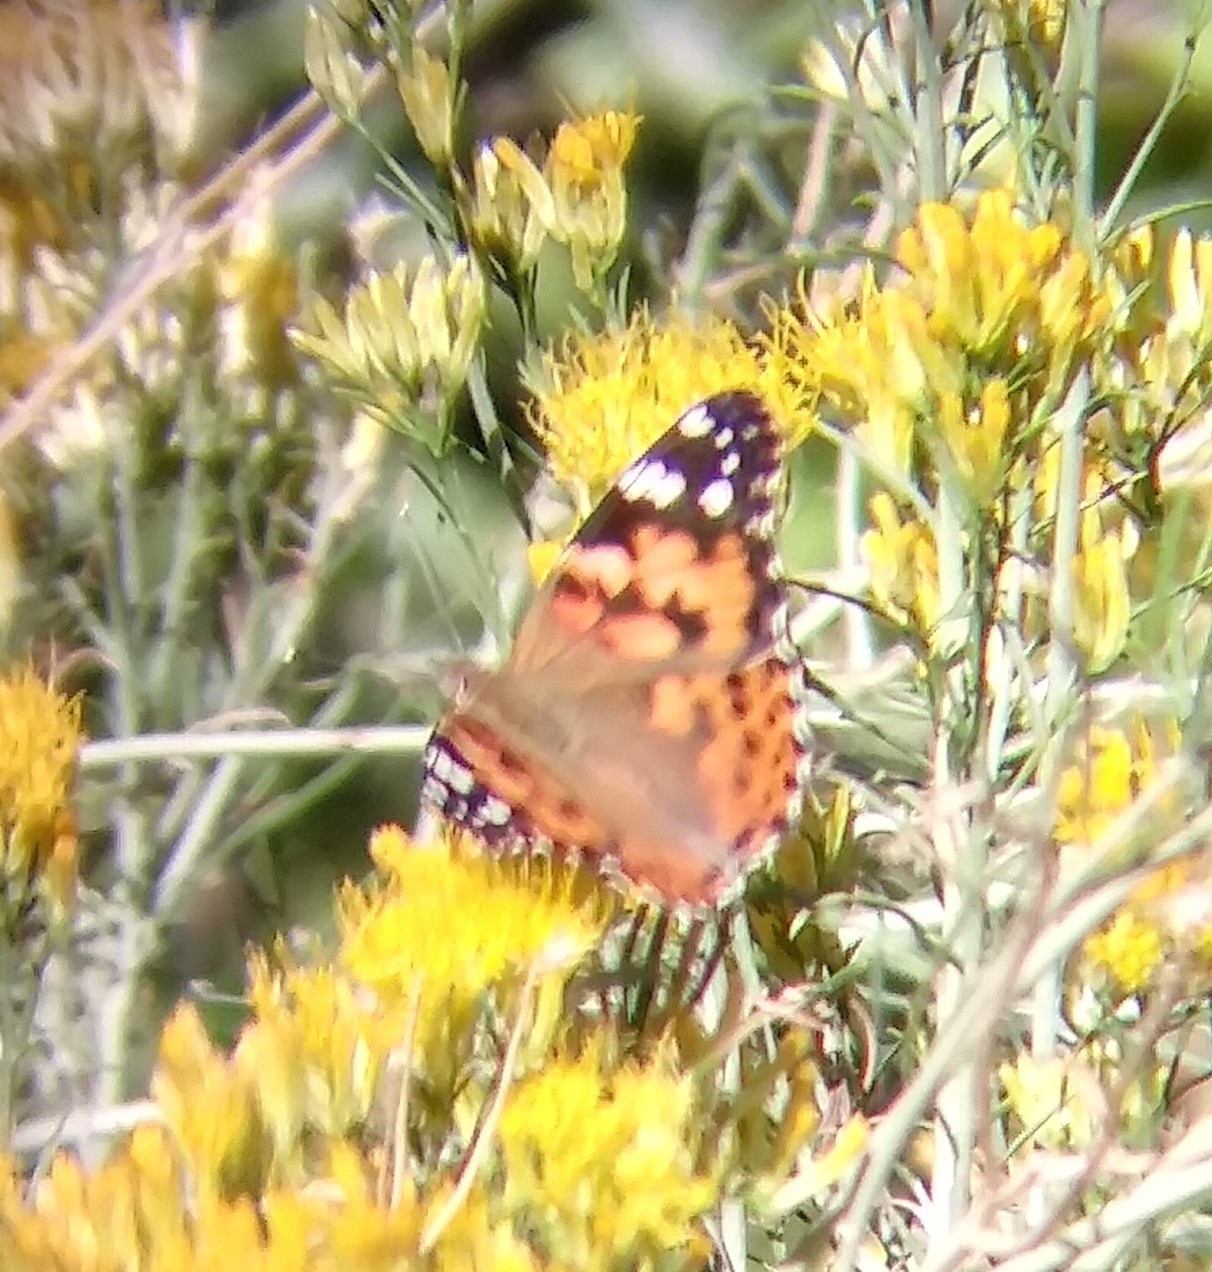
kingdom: Animalia
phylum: Arthropoda
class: Insecta
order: Lepidoptera
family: Nymphalidae
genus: Vanessa
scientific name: Vanessa cardui
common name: Painted lady
